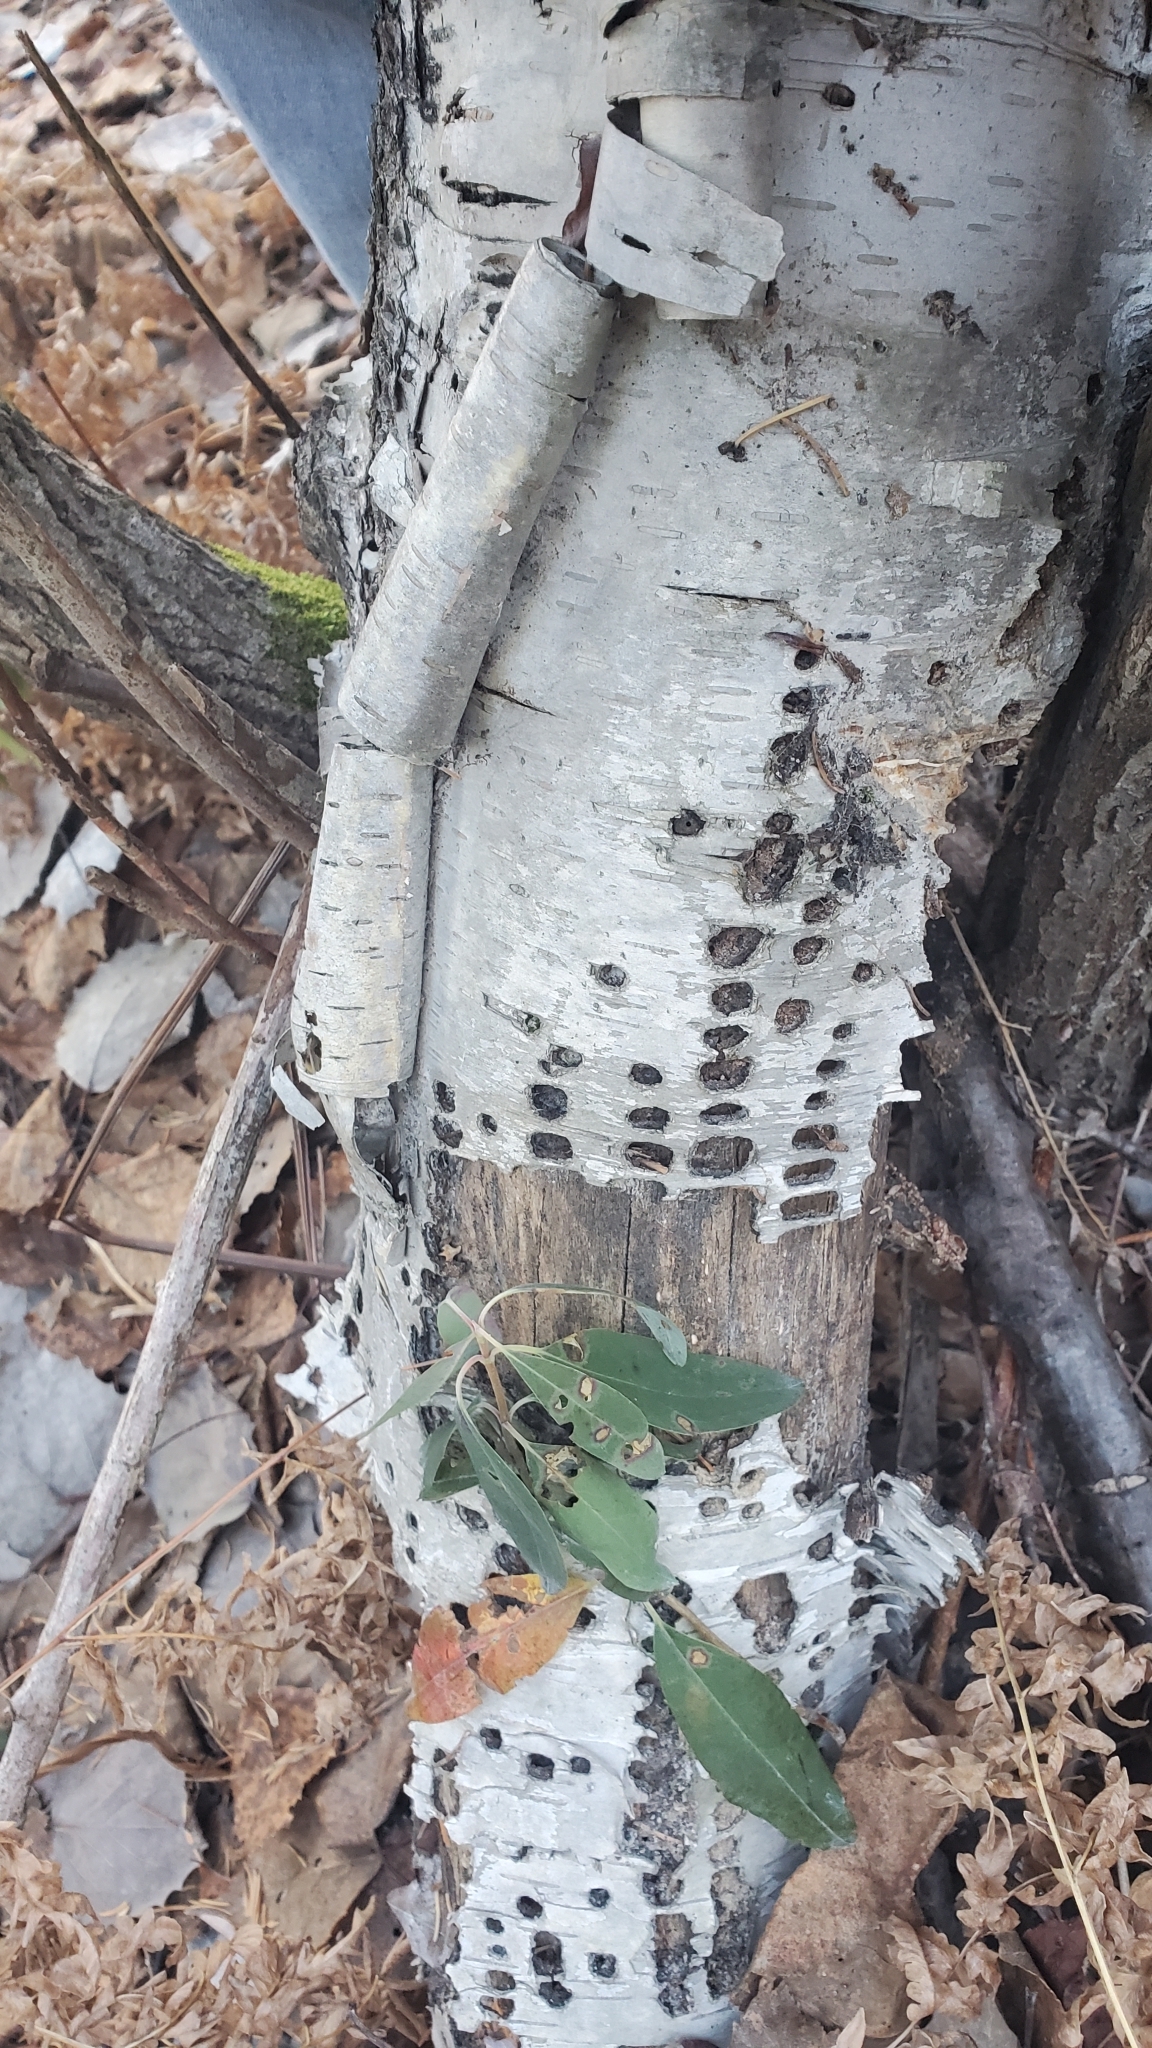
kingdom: Animalia
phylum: Chordata
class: Aves
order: Piciformes
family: Picidae
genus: Sphyrapicus
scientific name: Sphyrapicus varius
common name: Yellow-bellied sapsucker
